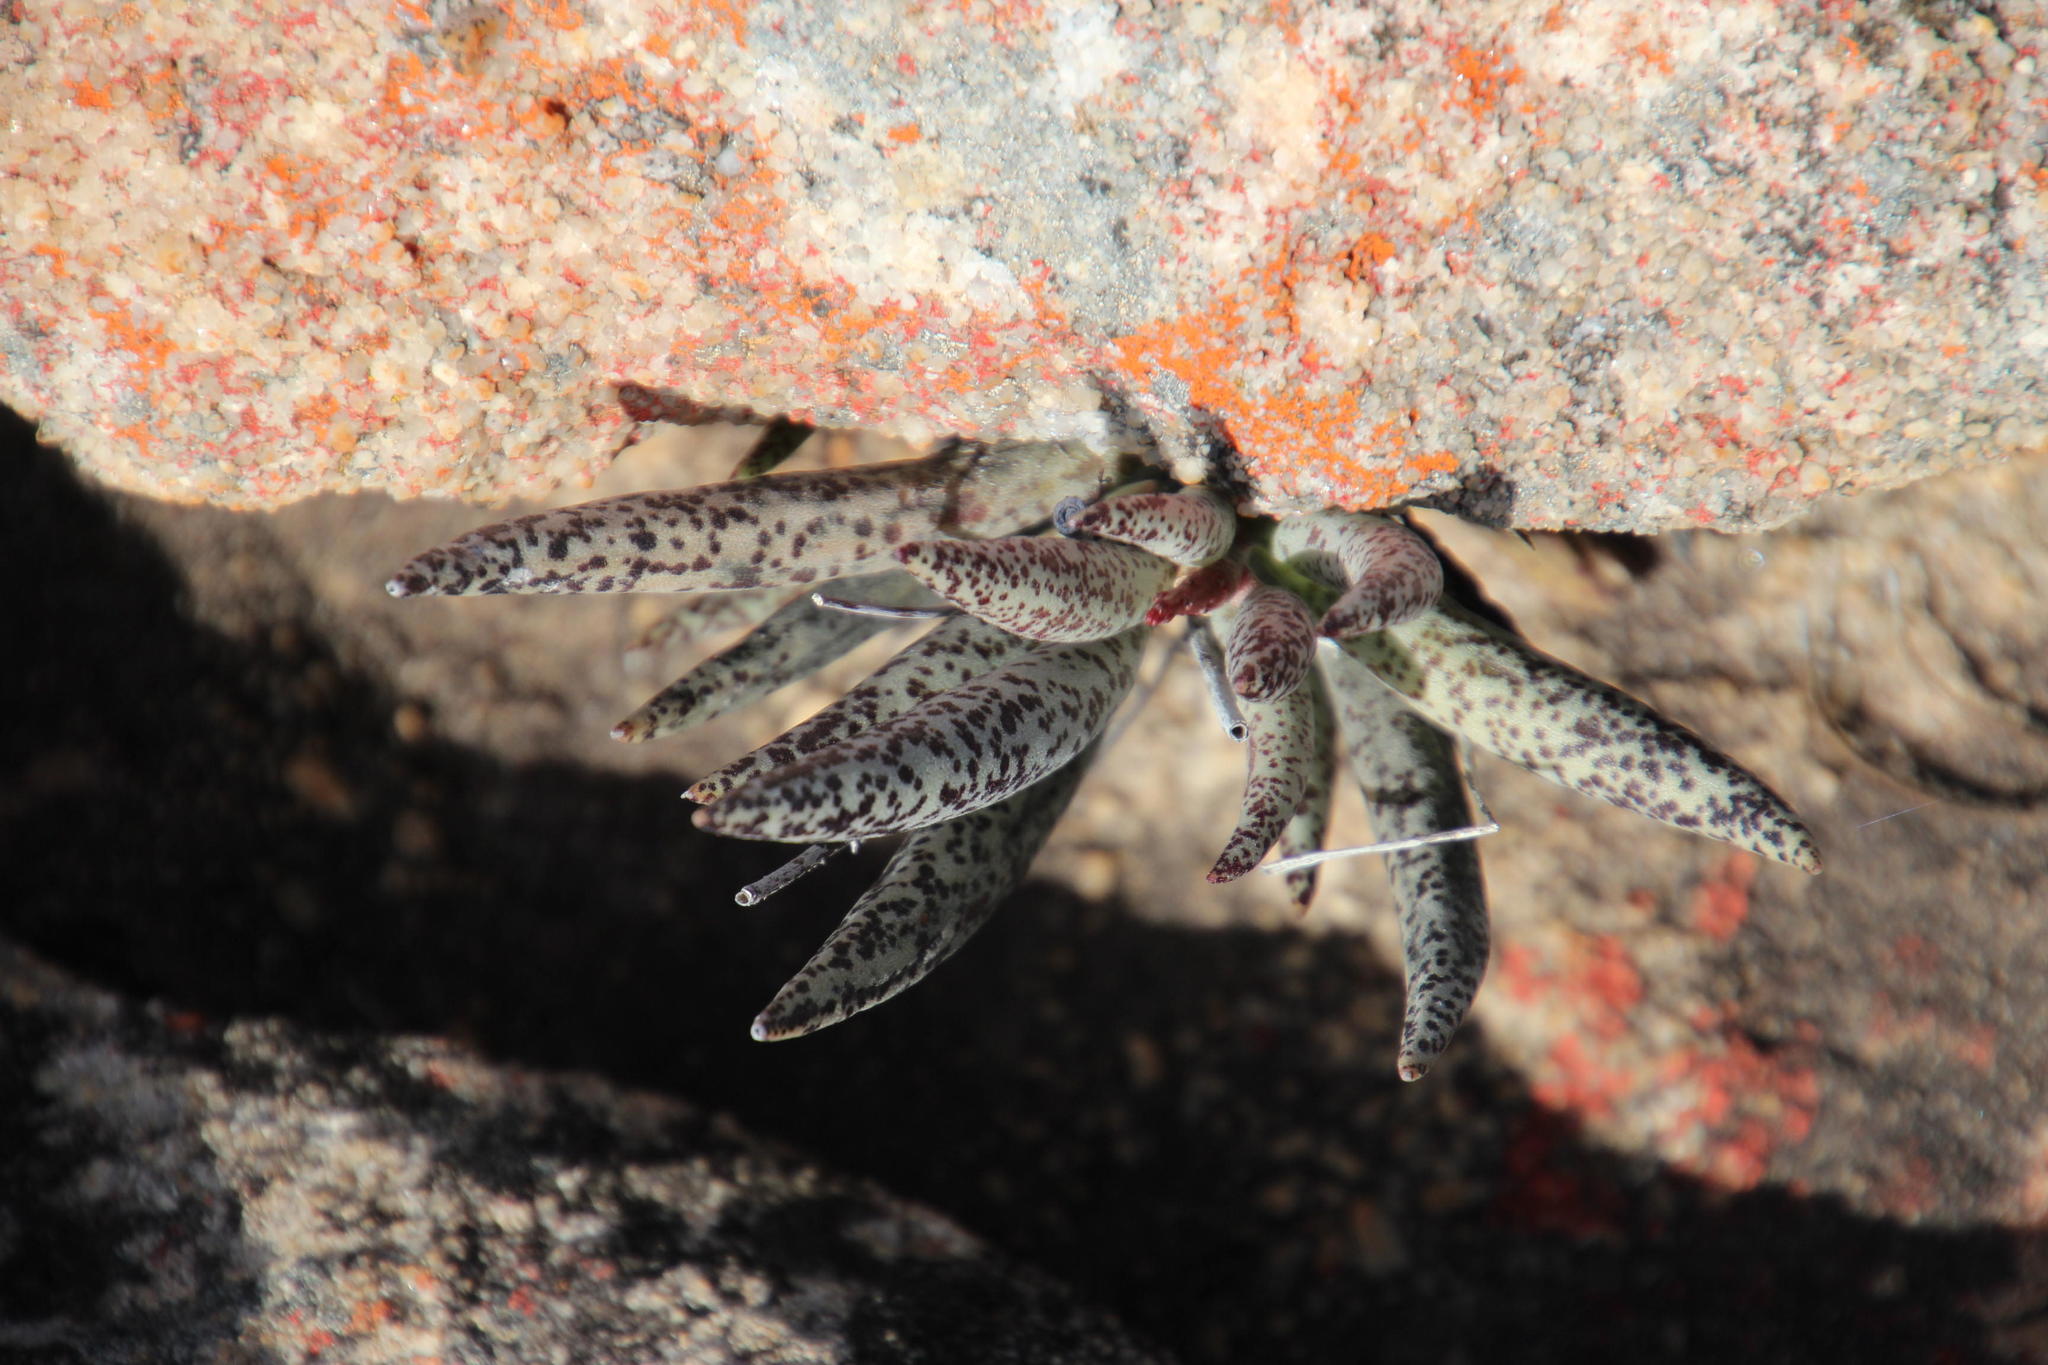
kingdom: Plantae
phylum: Tracheophyta
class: Magnoliopsida
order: Saxifragales
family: Crassulaceae
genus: Adromischus
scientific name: Adromischus filicaulis
